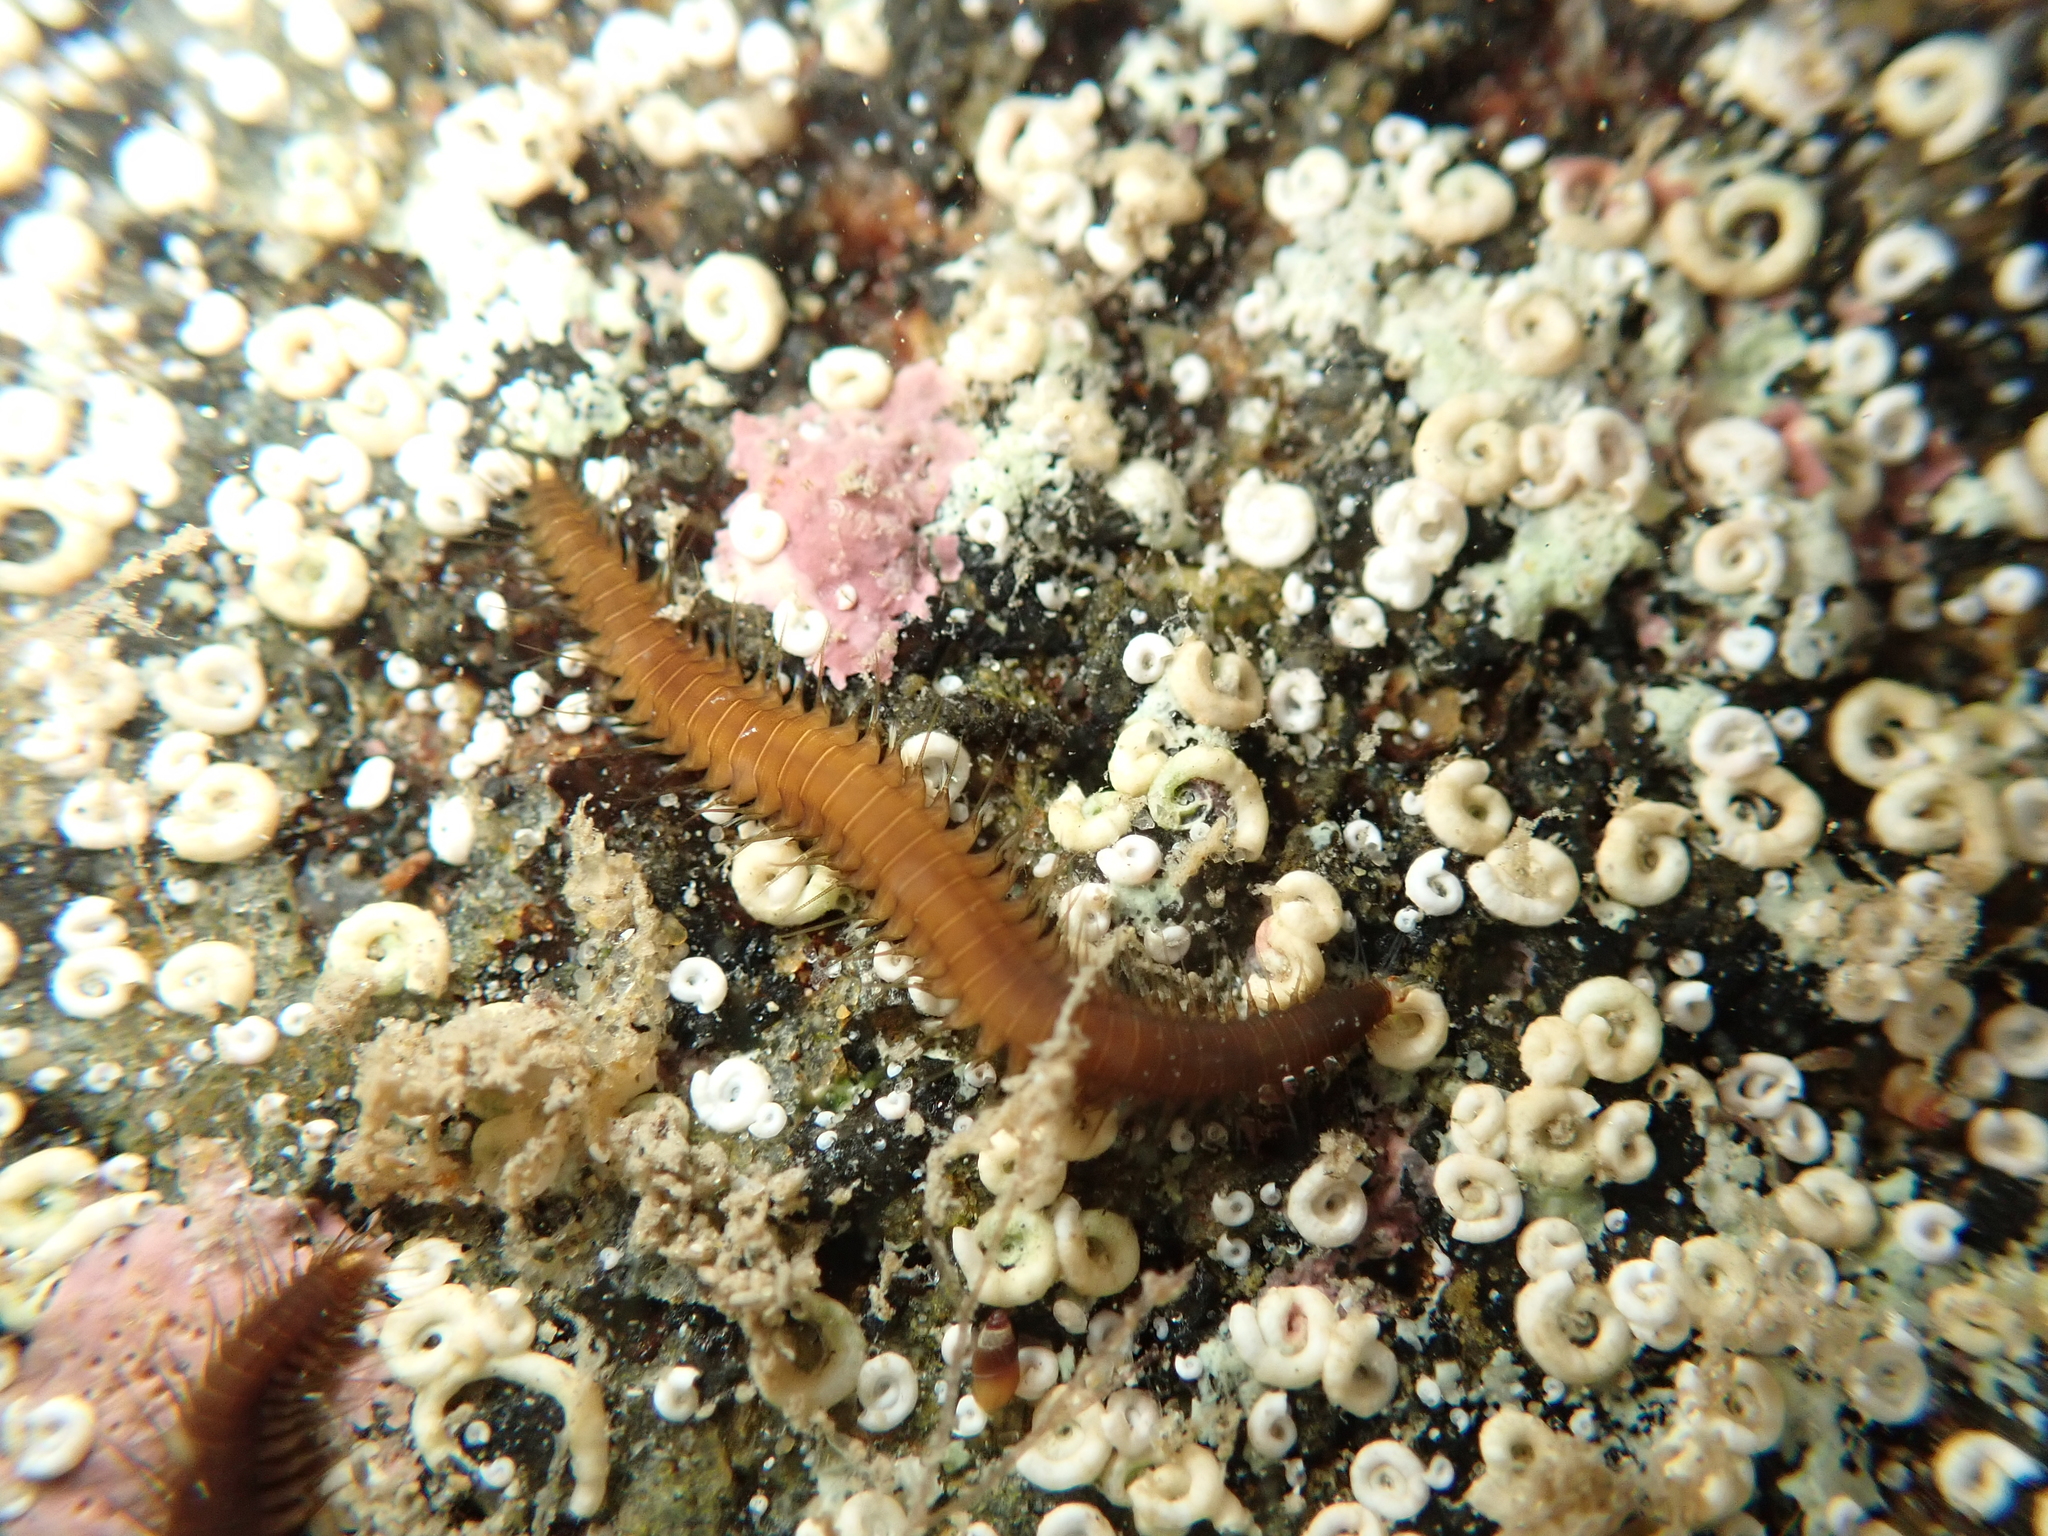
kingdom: Animalia
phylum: Annelida
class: Polychaeta
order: Phyllodocida
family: Hesionidae
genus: Oxydromus
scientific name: Oxydromus angustifrons
